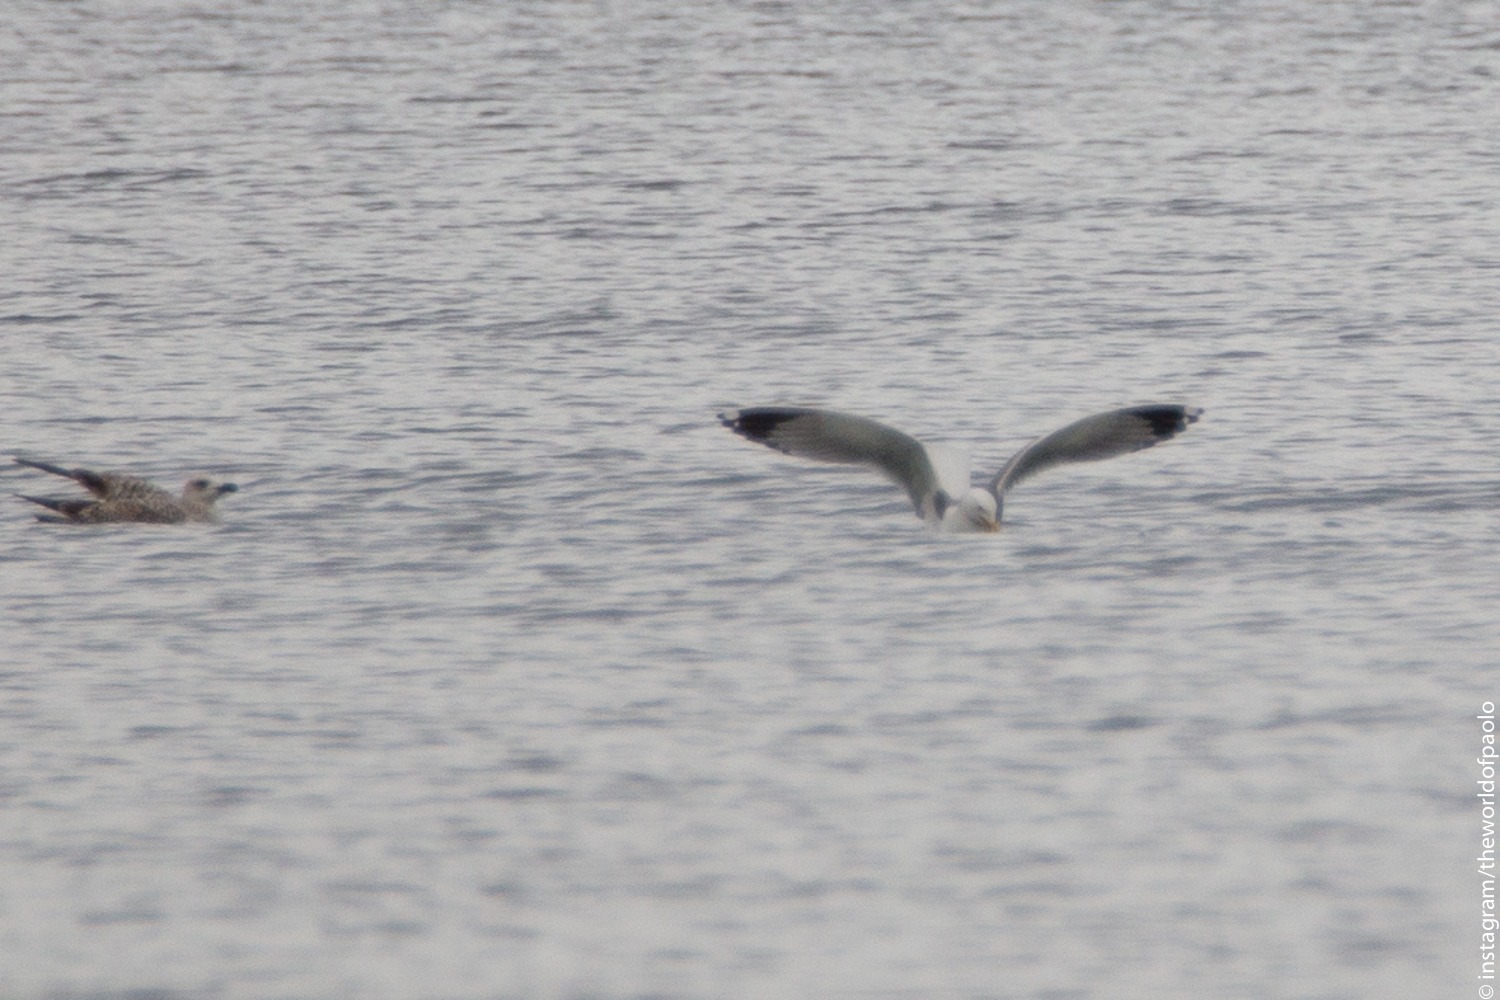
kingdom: Animalia
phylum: Chordata
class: Aves
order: Charadriiformes
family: Laridae
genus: Larus
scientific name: Larus michahellis
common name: Yellow-legged gull
